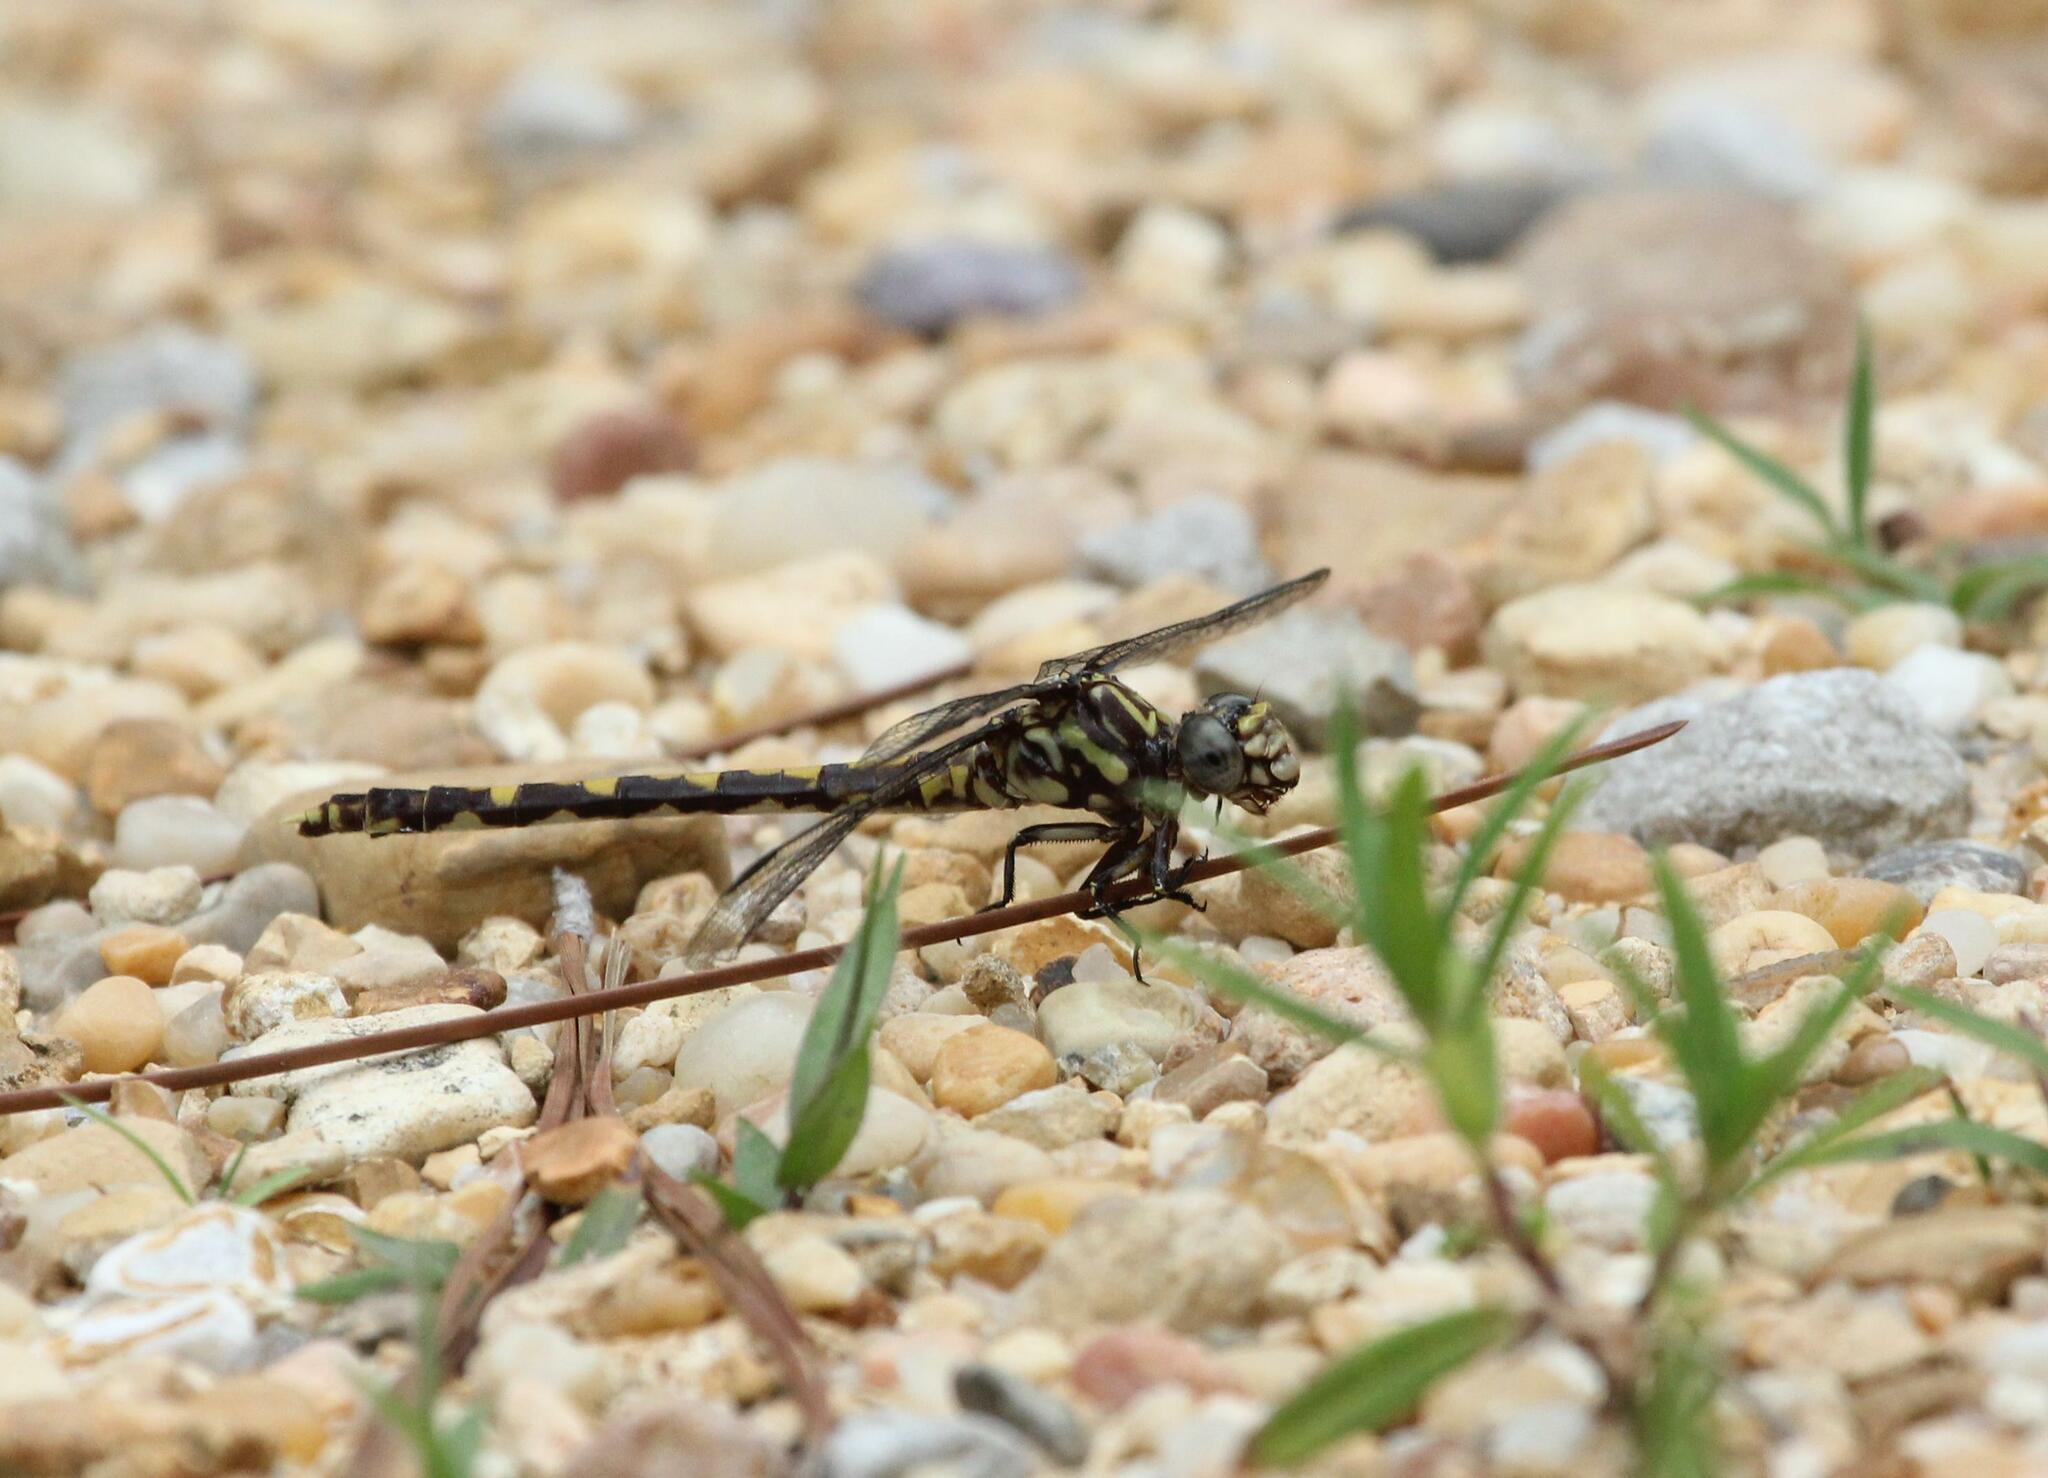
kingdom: Animalia
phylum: Arthropoda
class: Insecta
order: Odonata
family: Gomphidae
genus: Progomphus
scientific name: Progomphus obscurus
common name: Common sanddragon
